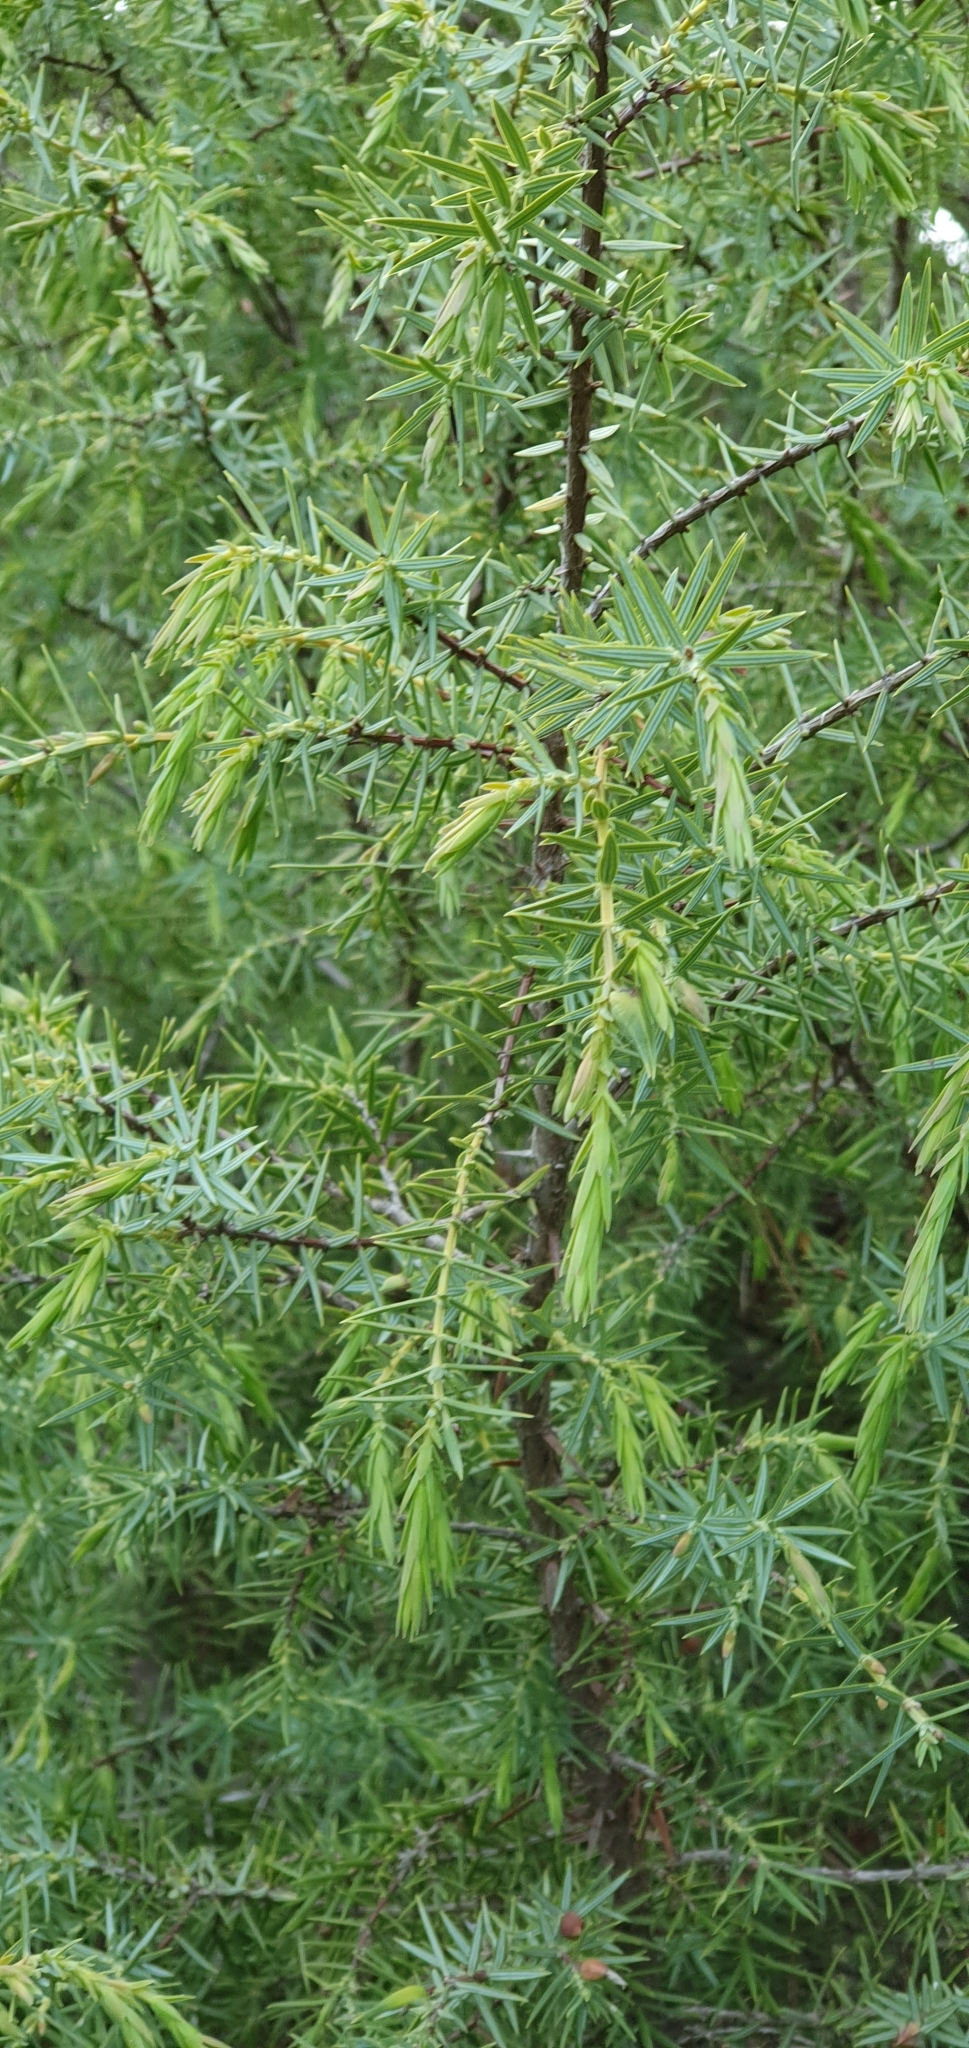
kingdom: Plantae
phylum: Tracheophyta
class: Pinopsida
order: Pinales
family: Cupressaceae
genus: Juniperus
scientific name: Juniperus oxycedrus
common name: Prickly juniper
